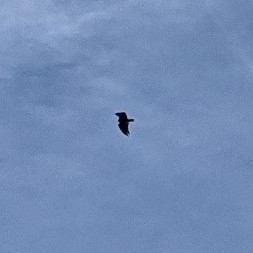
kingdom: Animalia
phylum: Chordata
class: Aves
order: Accipitriformes
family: Cathartidae
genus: Cathartes
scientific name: Cathartes aura
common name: Turkey vulture
